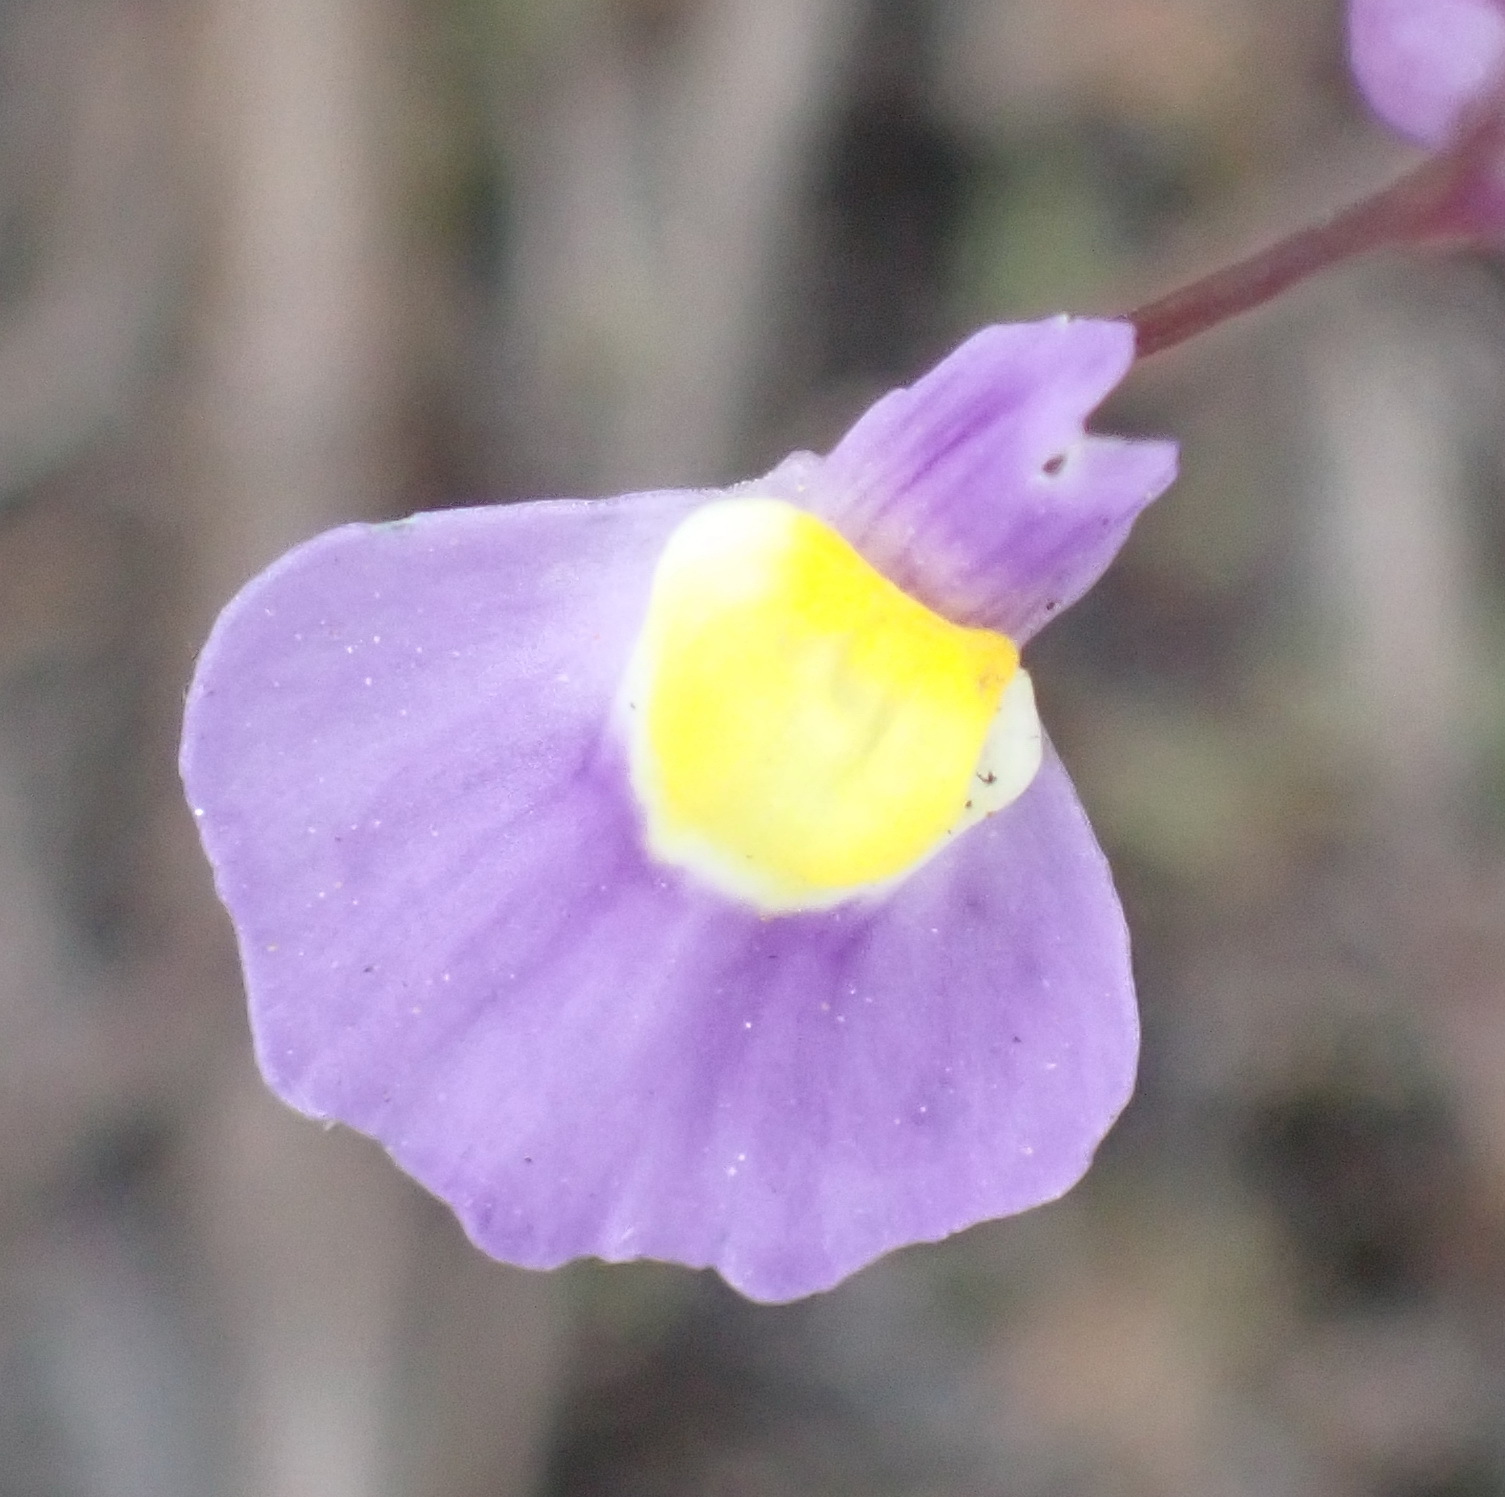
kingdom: Plantae
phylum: Tracheophyta
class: Magnoliopsida
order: Lamiales
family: Lentibulariaceae
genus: Utricularia
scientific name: Utricularia welwitschii
